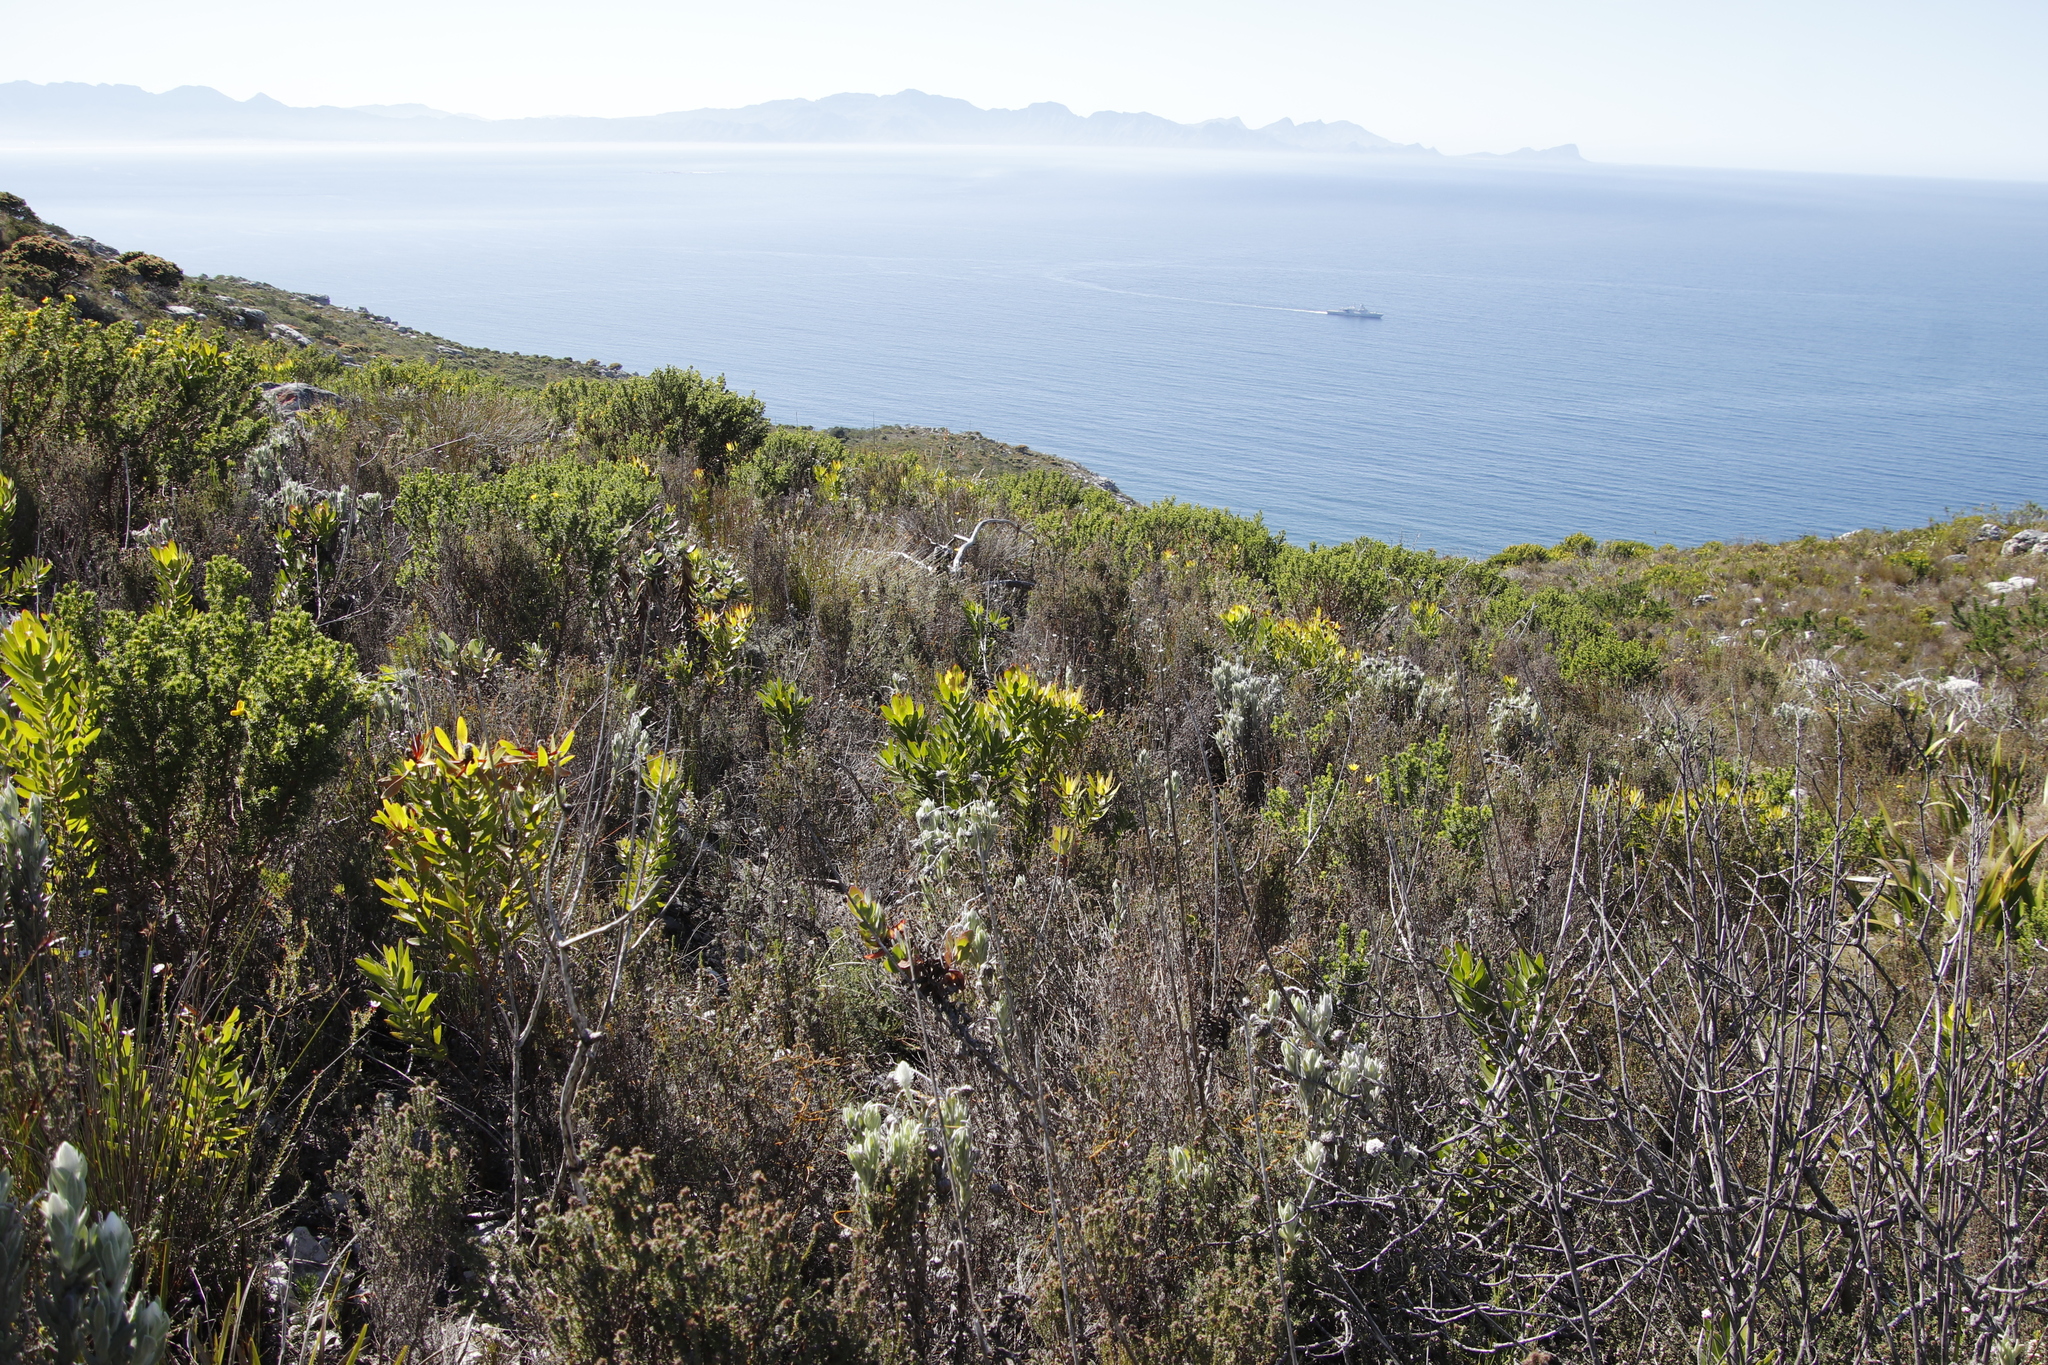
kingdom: Plantae
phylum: Tracheophyta
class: Magnoliopsida
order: Proteales
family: Proteaceae
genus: Leucadendron
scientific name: Leucadendron laureolum
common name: Golden sunshinebush
